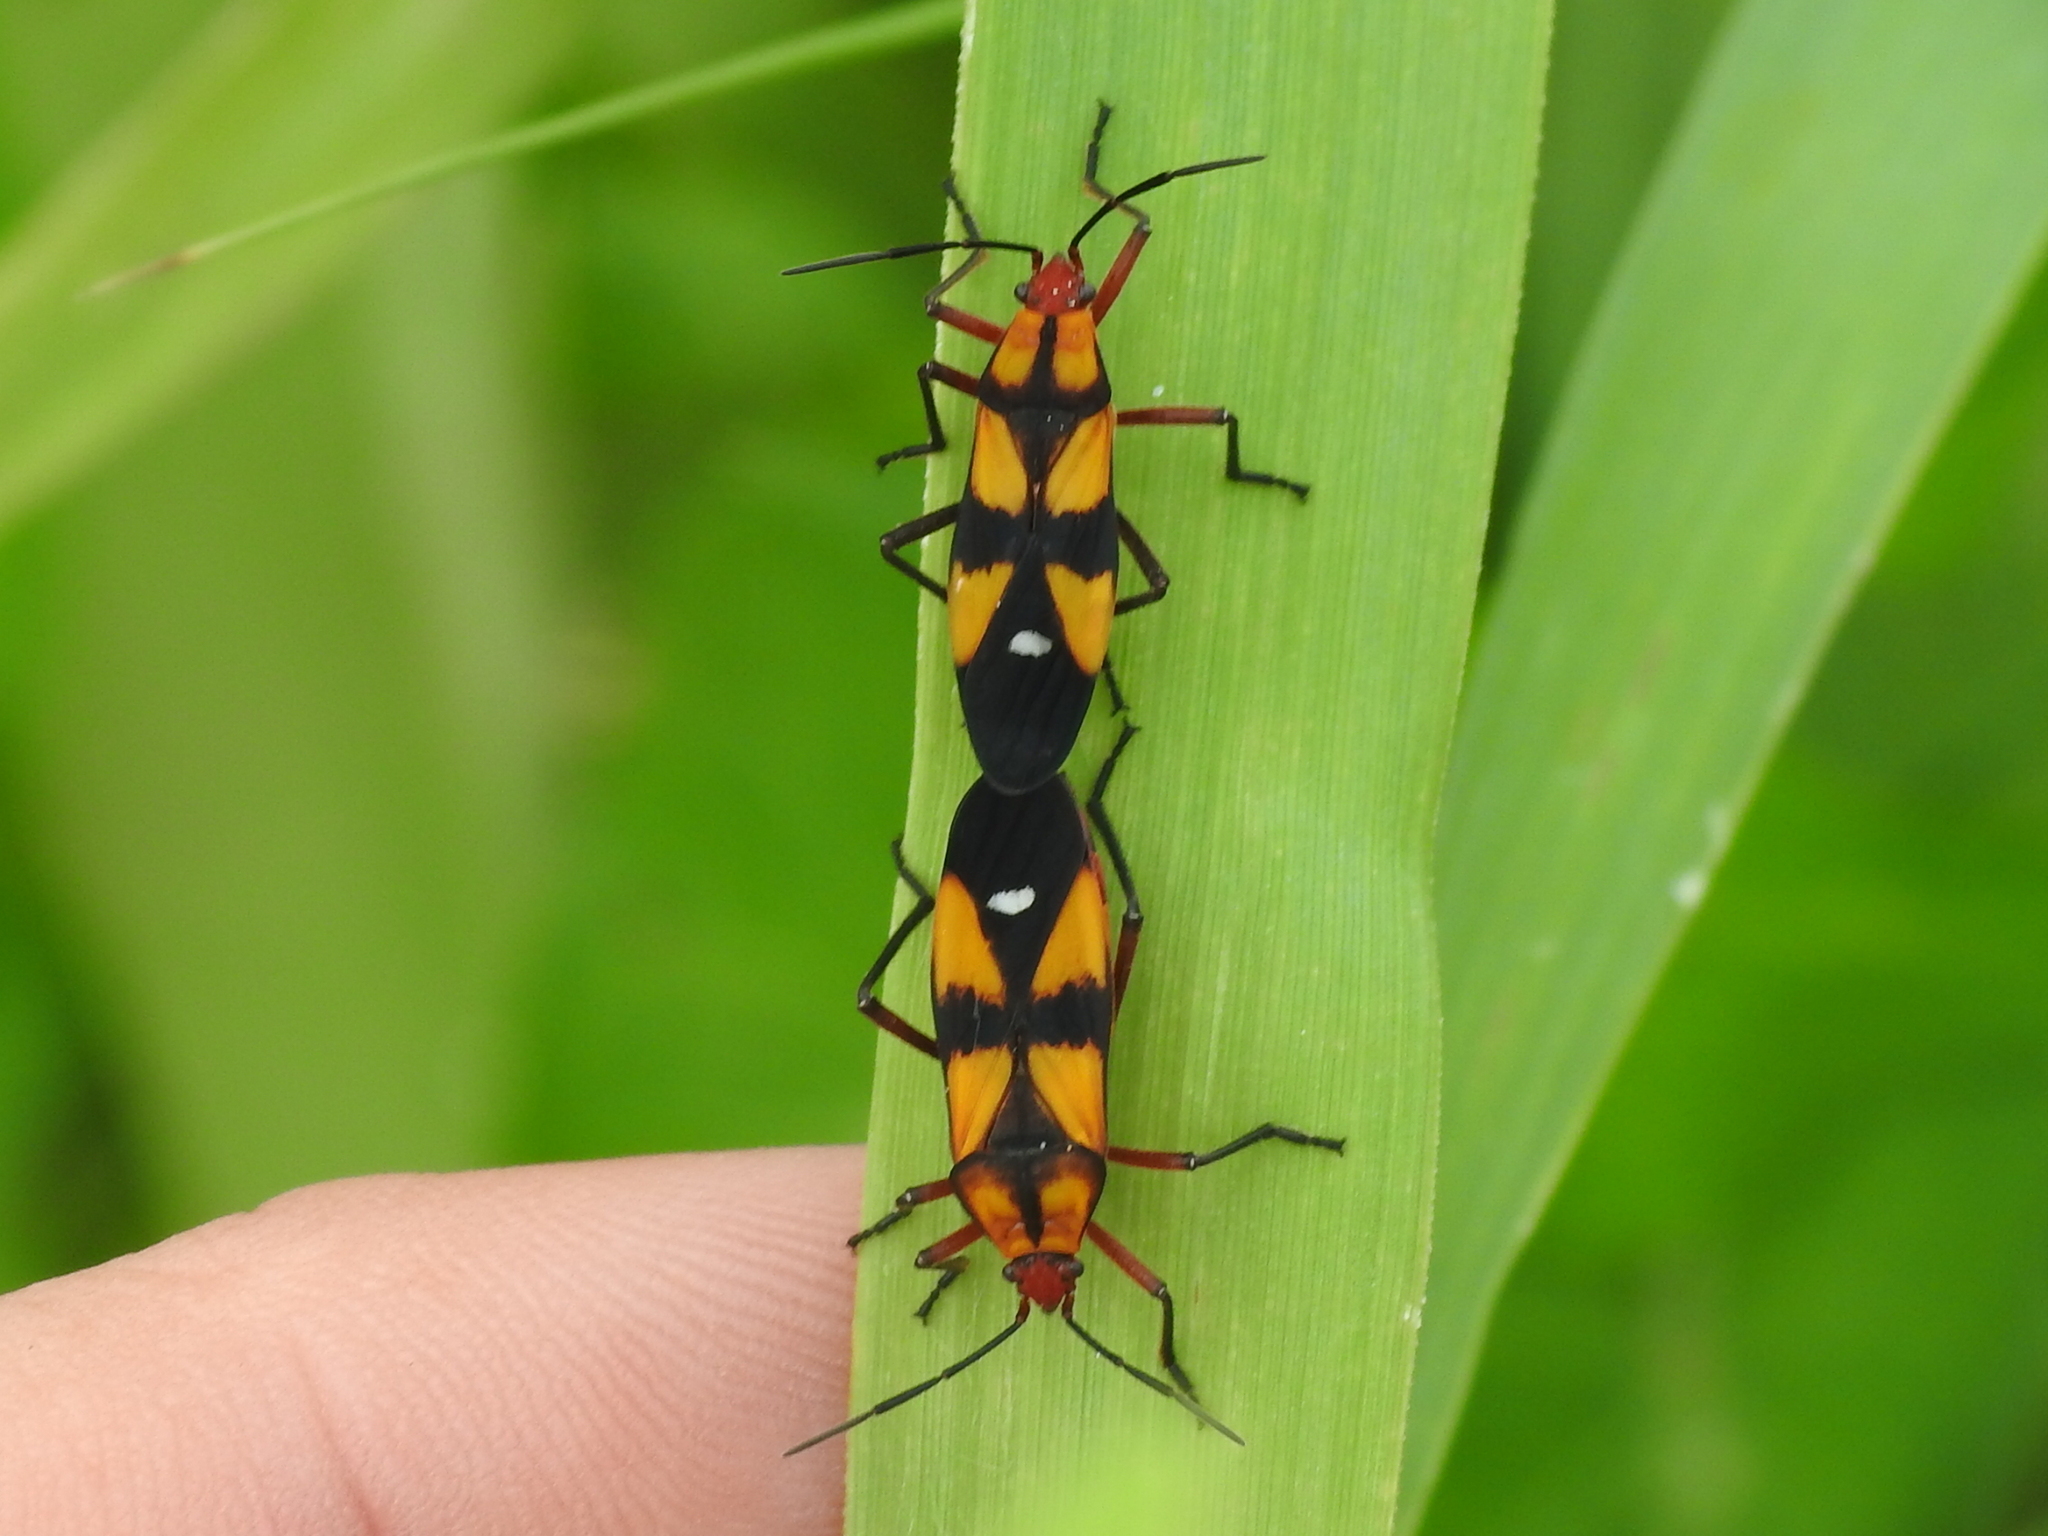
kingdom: Animalia
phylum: Arthropoda
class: Insecta
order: Hemiptera
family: Lygaeidae
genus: Oncopeltus
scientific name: Oncopeltus sexmaculatus
